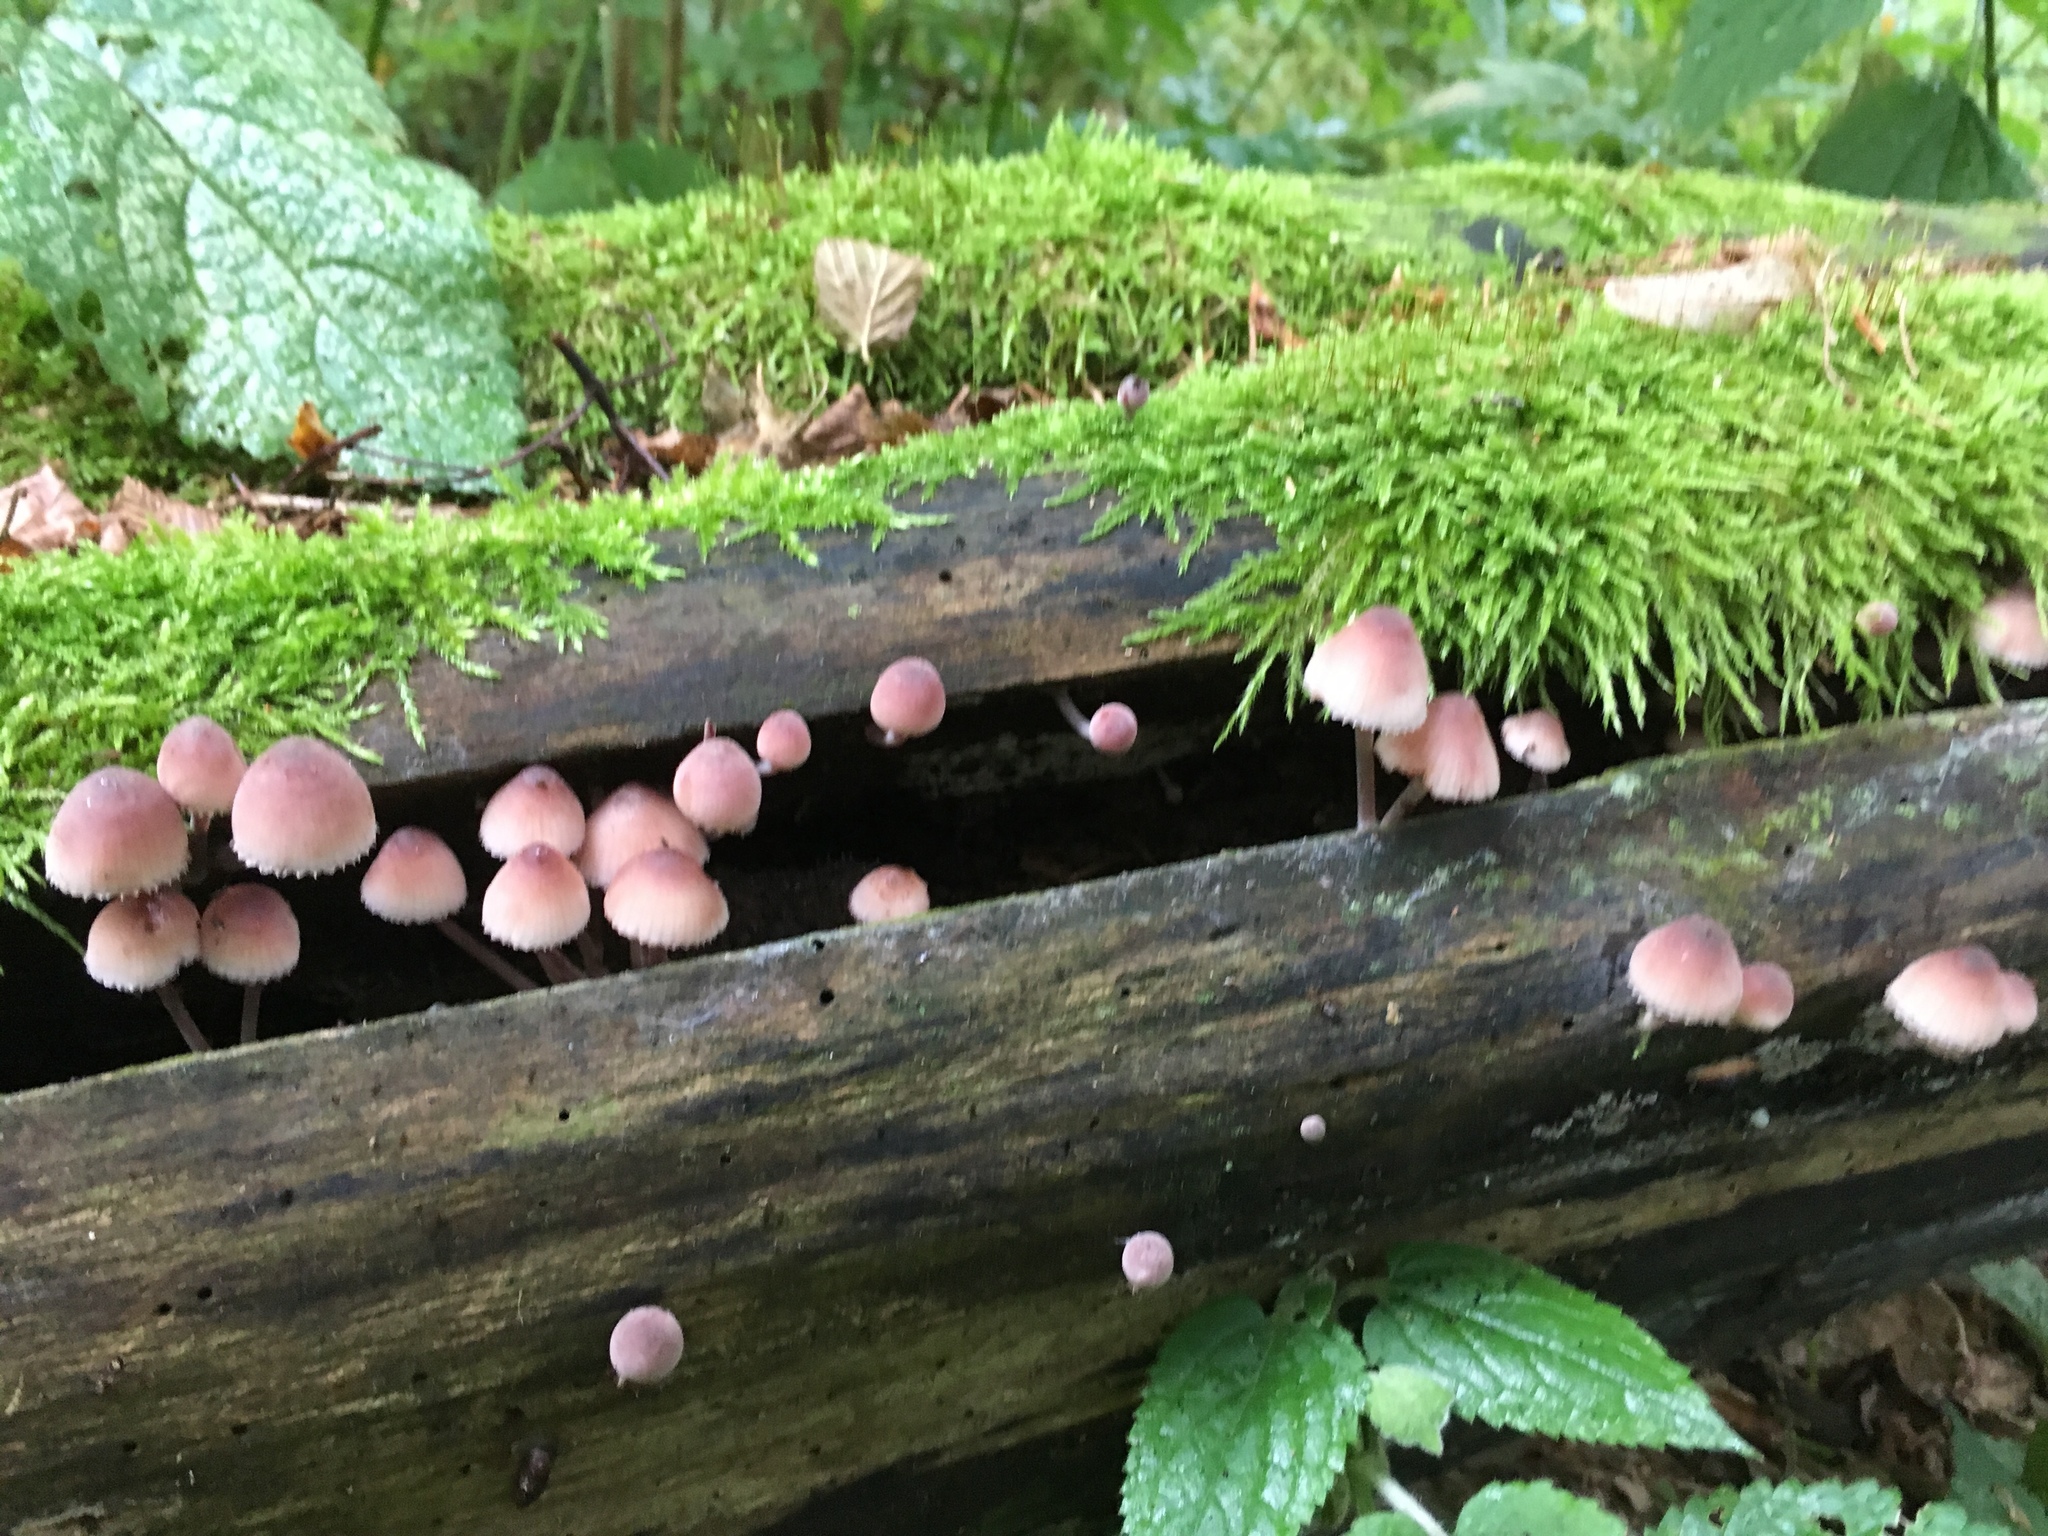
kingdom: Fungi
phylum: Basidiomycota
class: Agaricomycetes
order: Agaricales
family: Mycenaceae
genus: Mycena
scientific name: Mycena haematopus
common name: Burgundydrop bonnet
